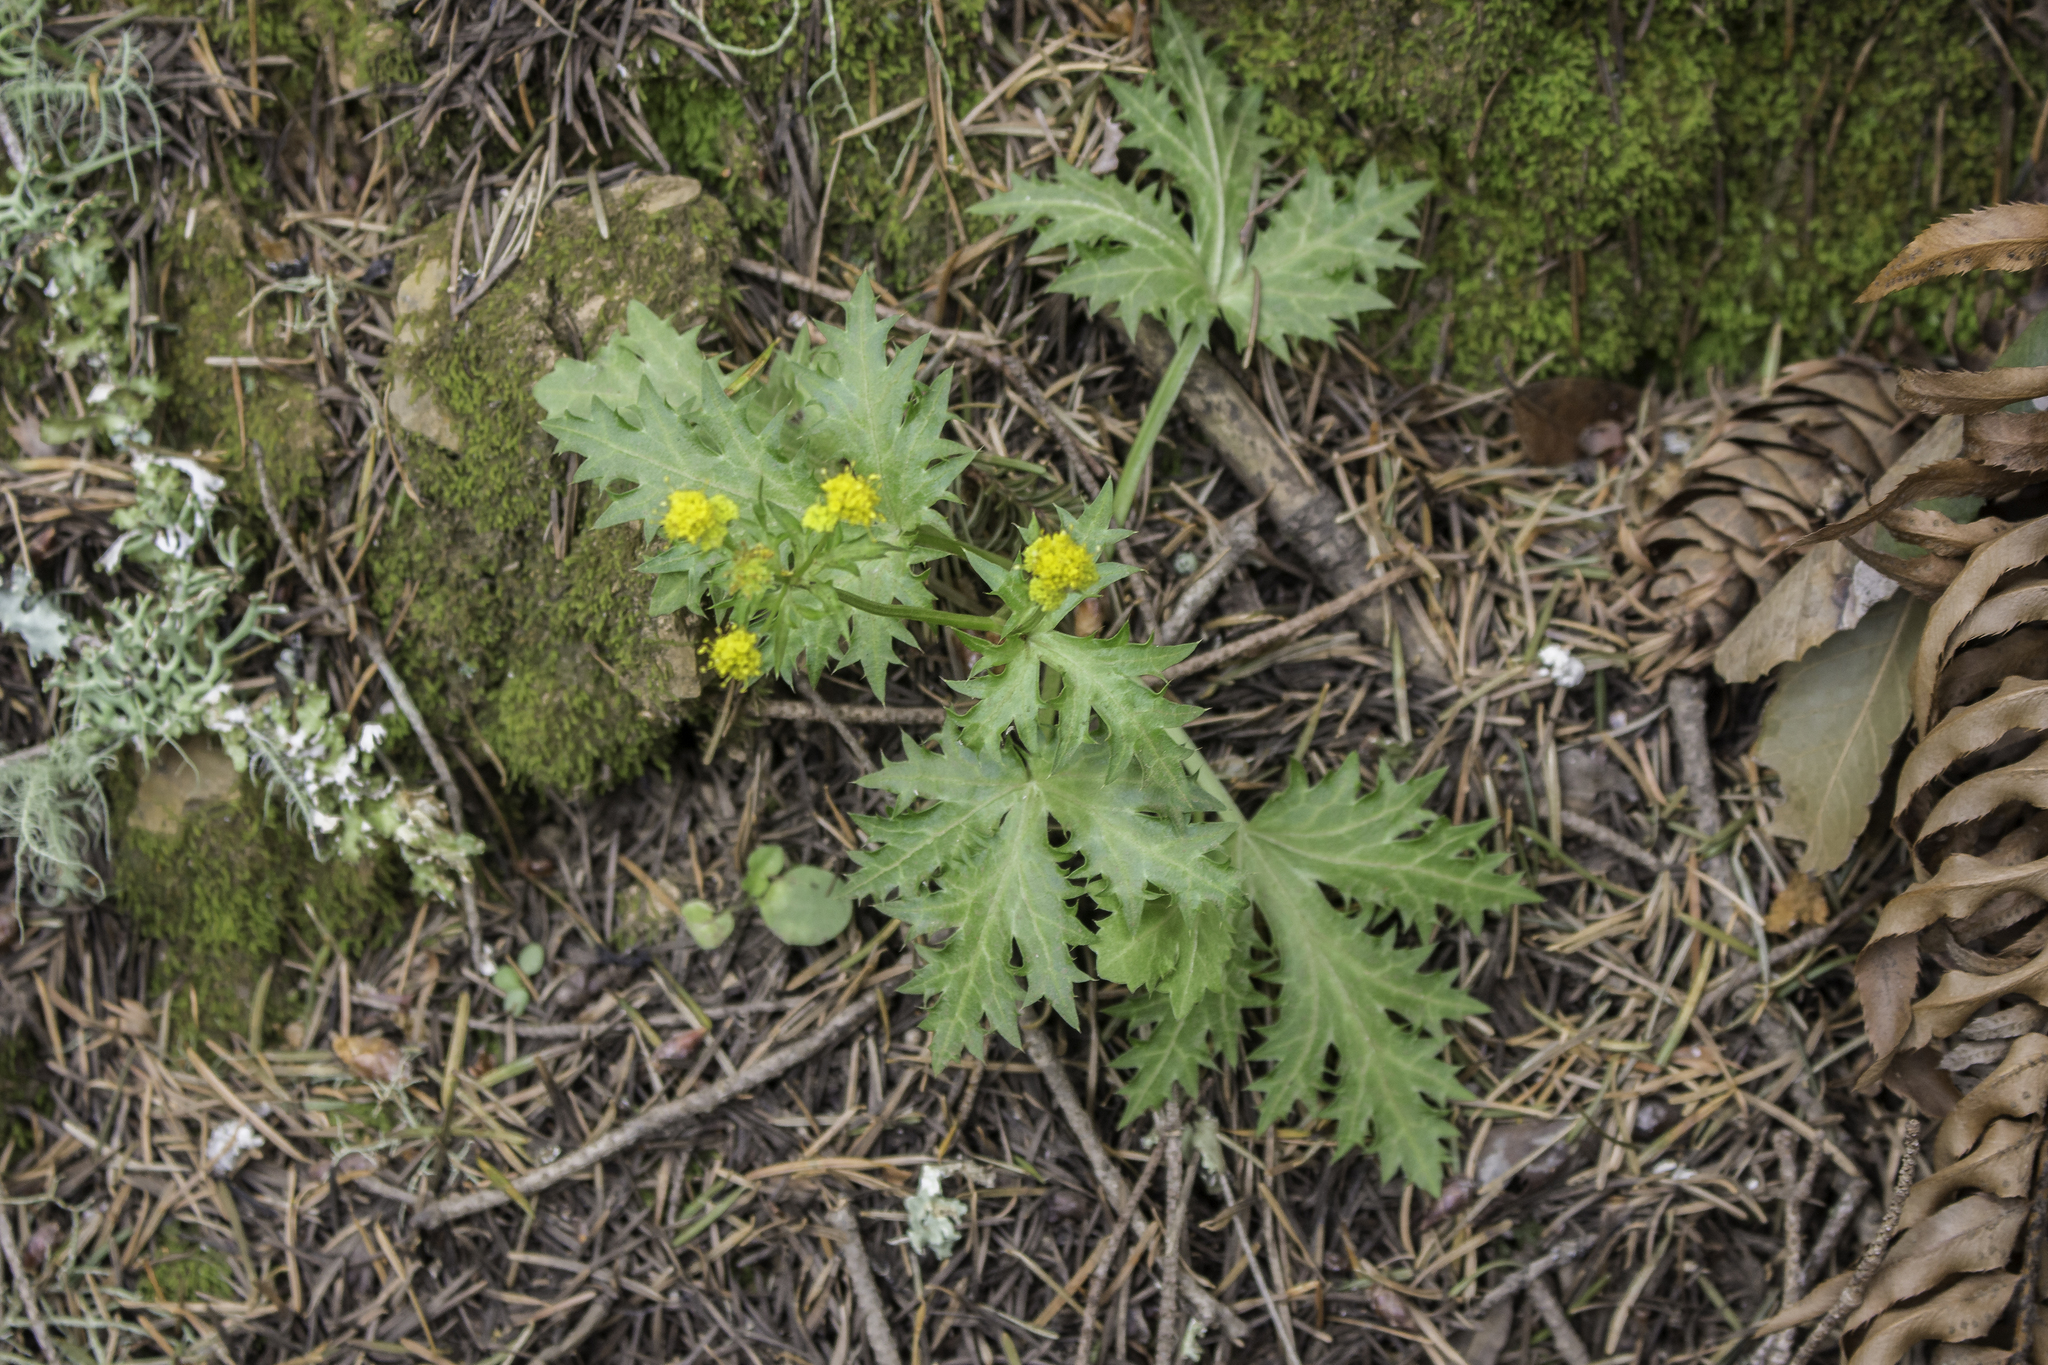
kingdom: Plantae
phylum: Tracheophyta
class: Magnoliopsida
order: Apiales
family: Apiaceae
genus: Sanicula
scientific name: Sanicula laciniata
